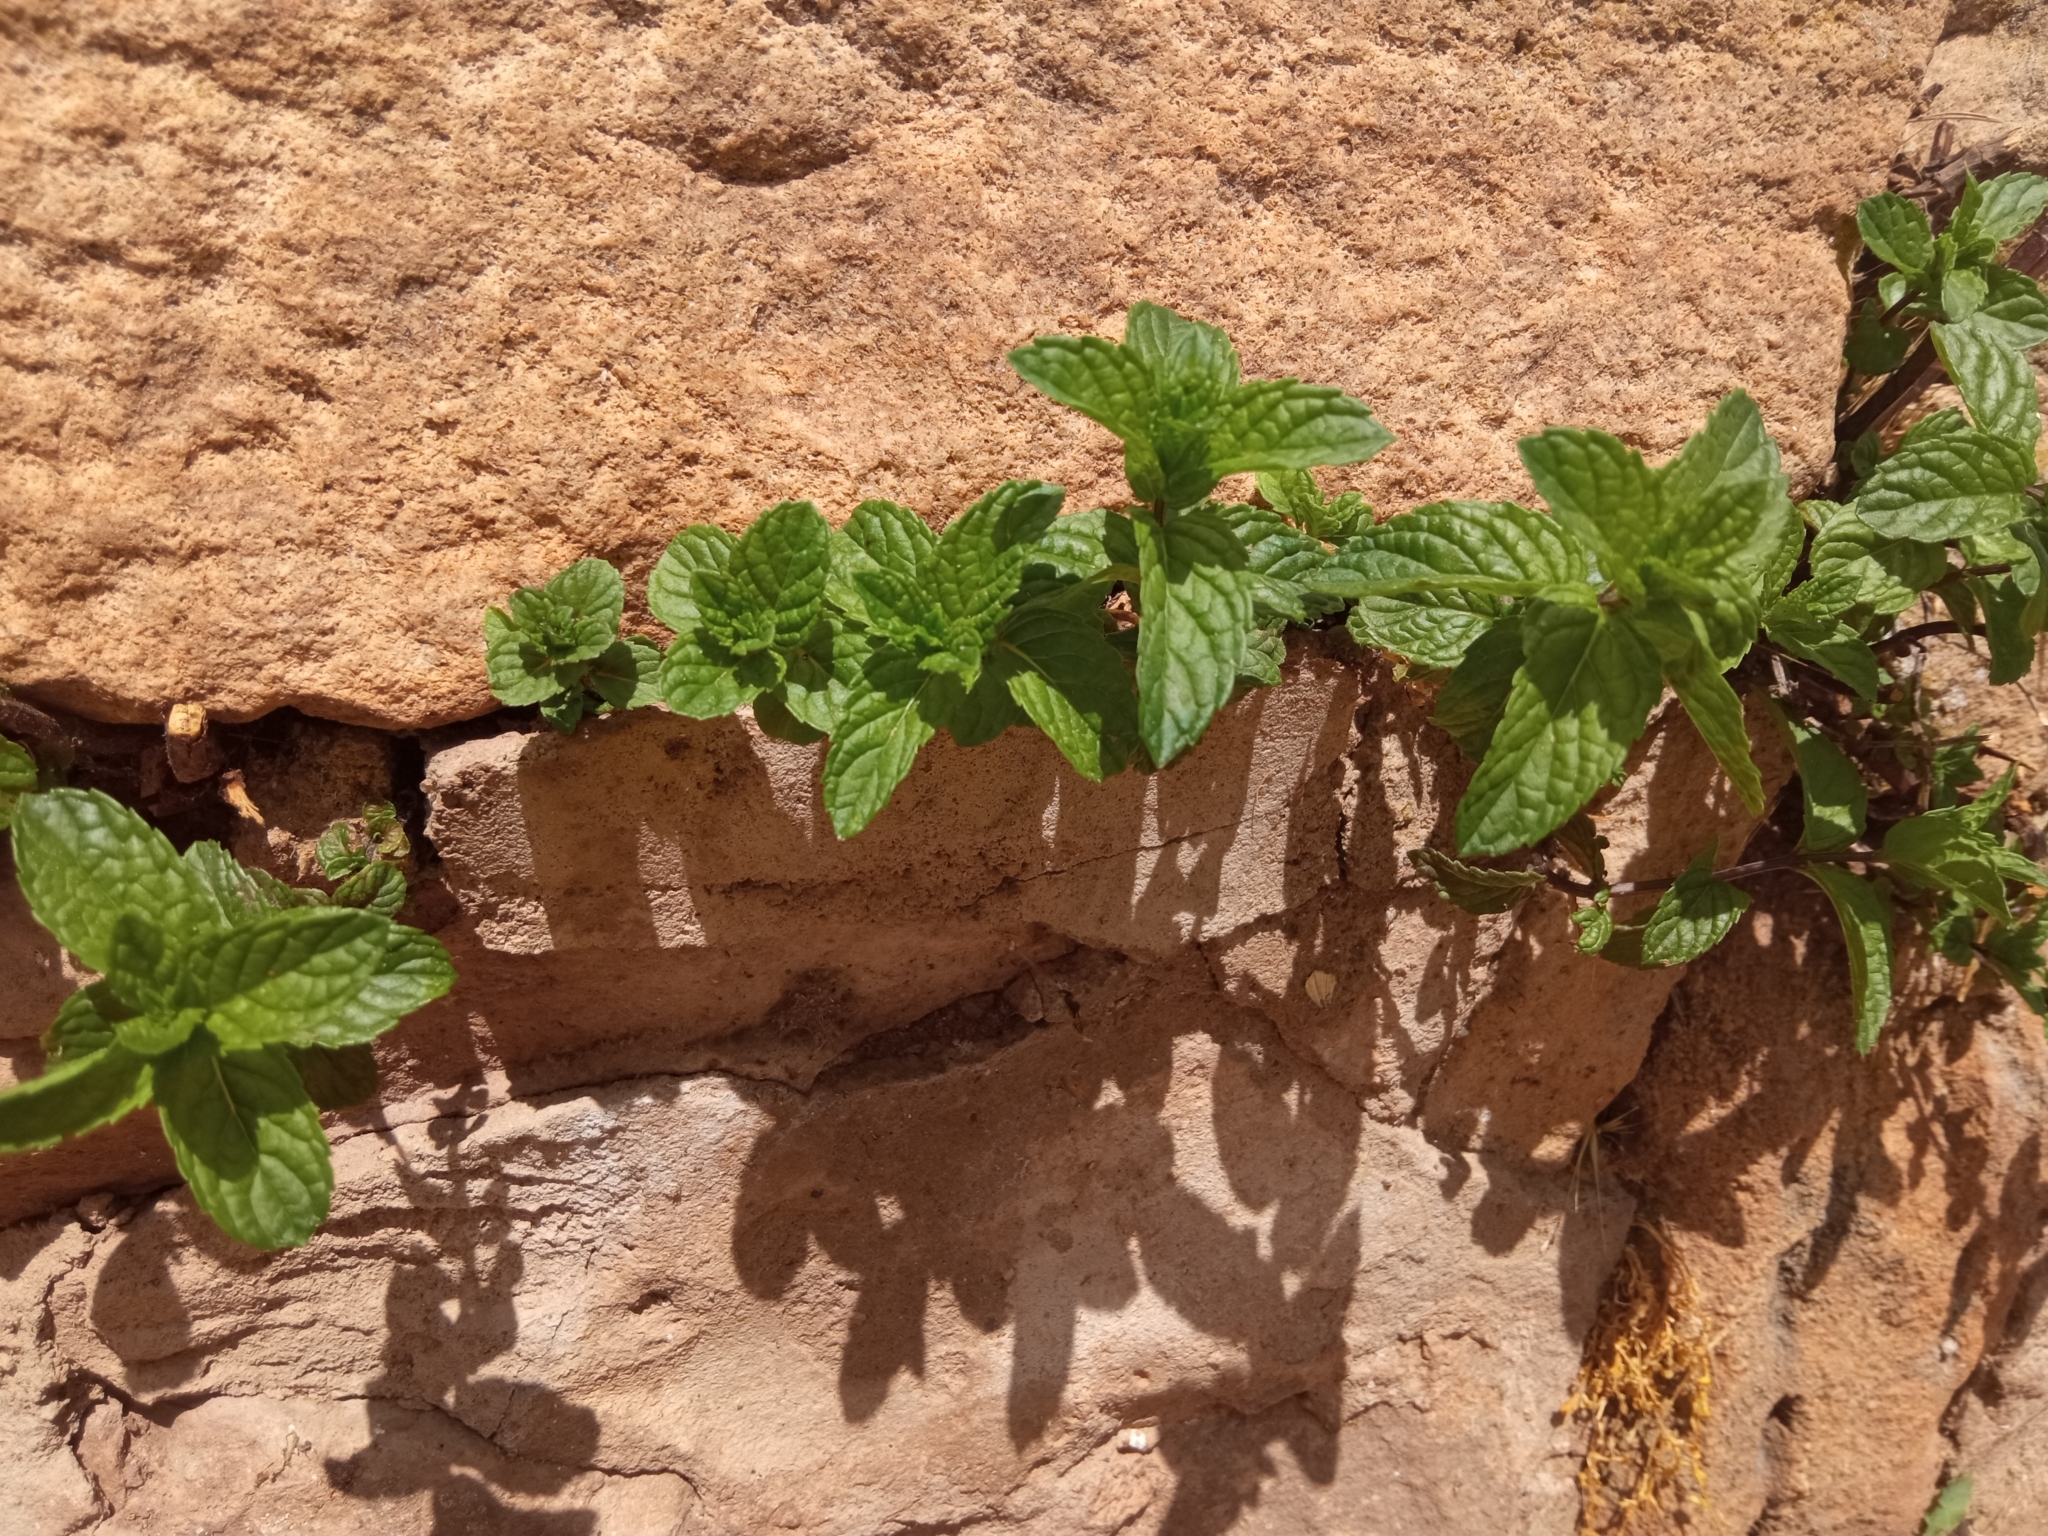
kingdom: Plantae
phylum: Tracheophyta
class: Magnoliopsida
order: Lamiales
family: Lamiaceae
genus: Mentha
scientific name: Mentha arvensis
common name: Corn mint
